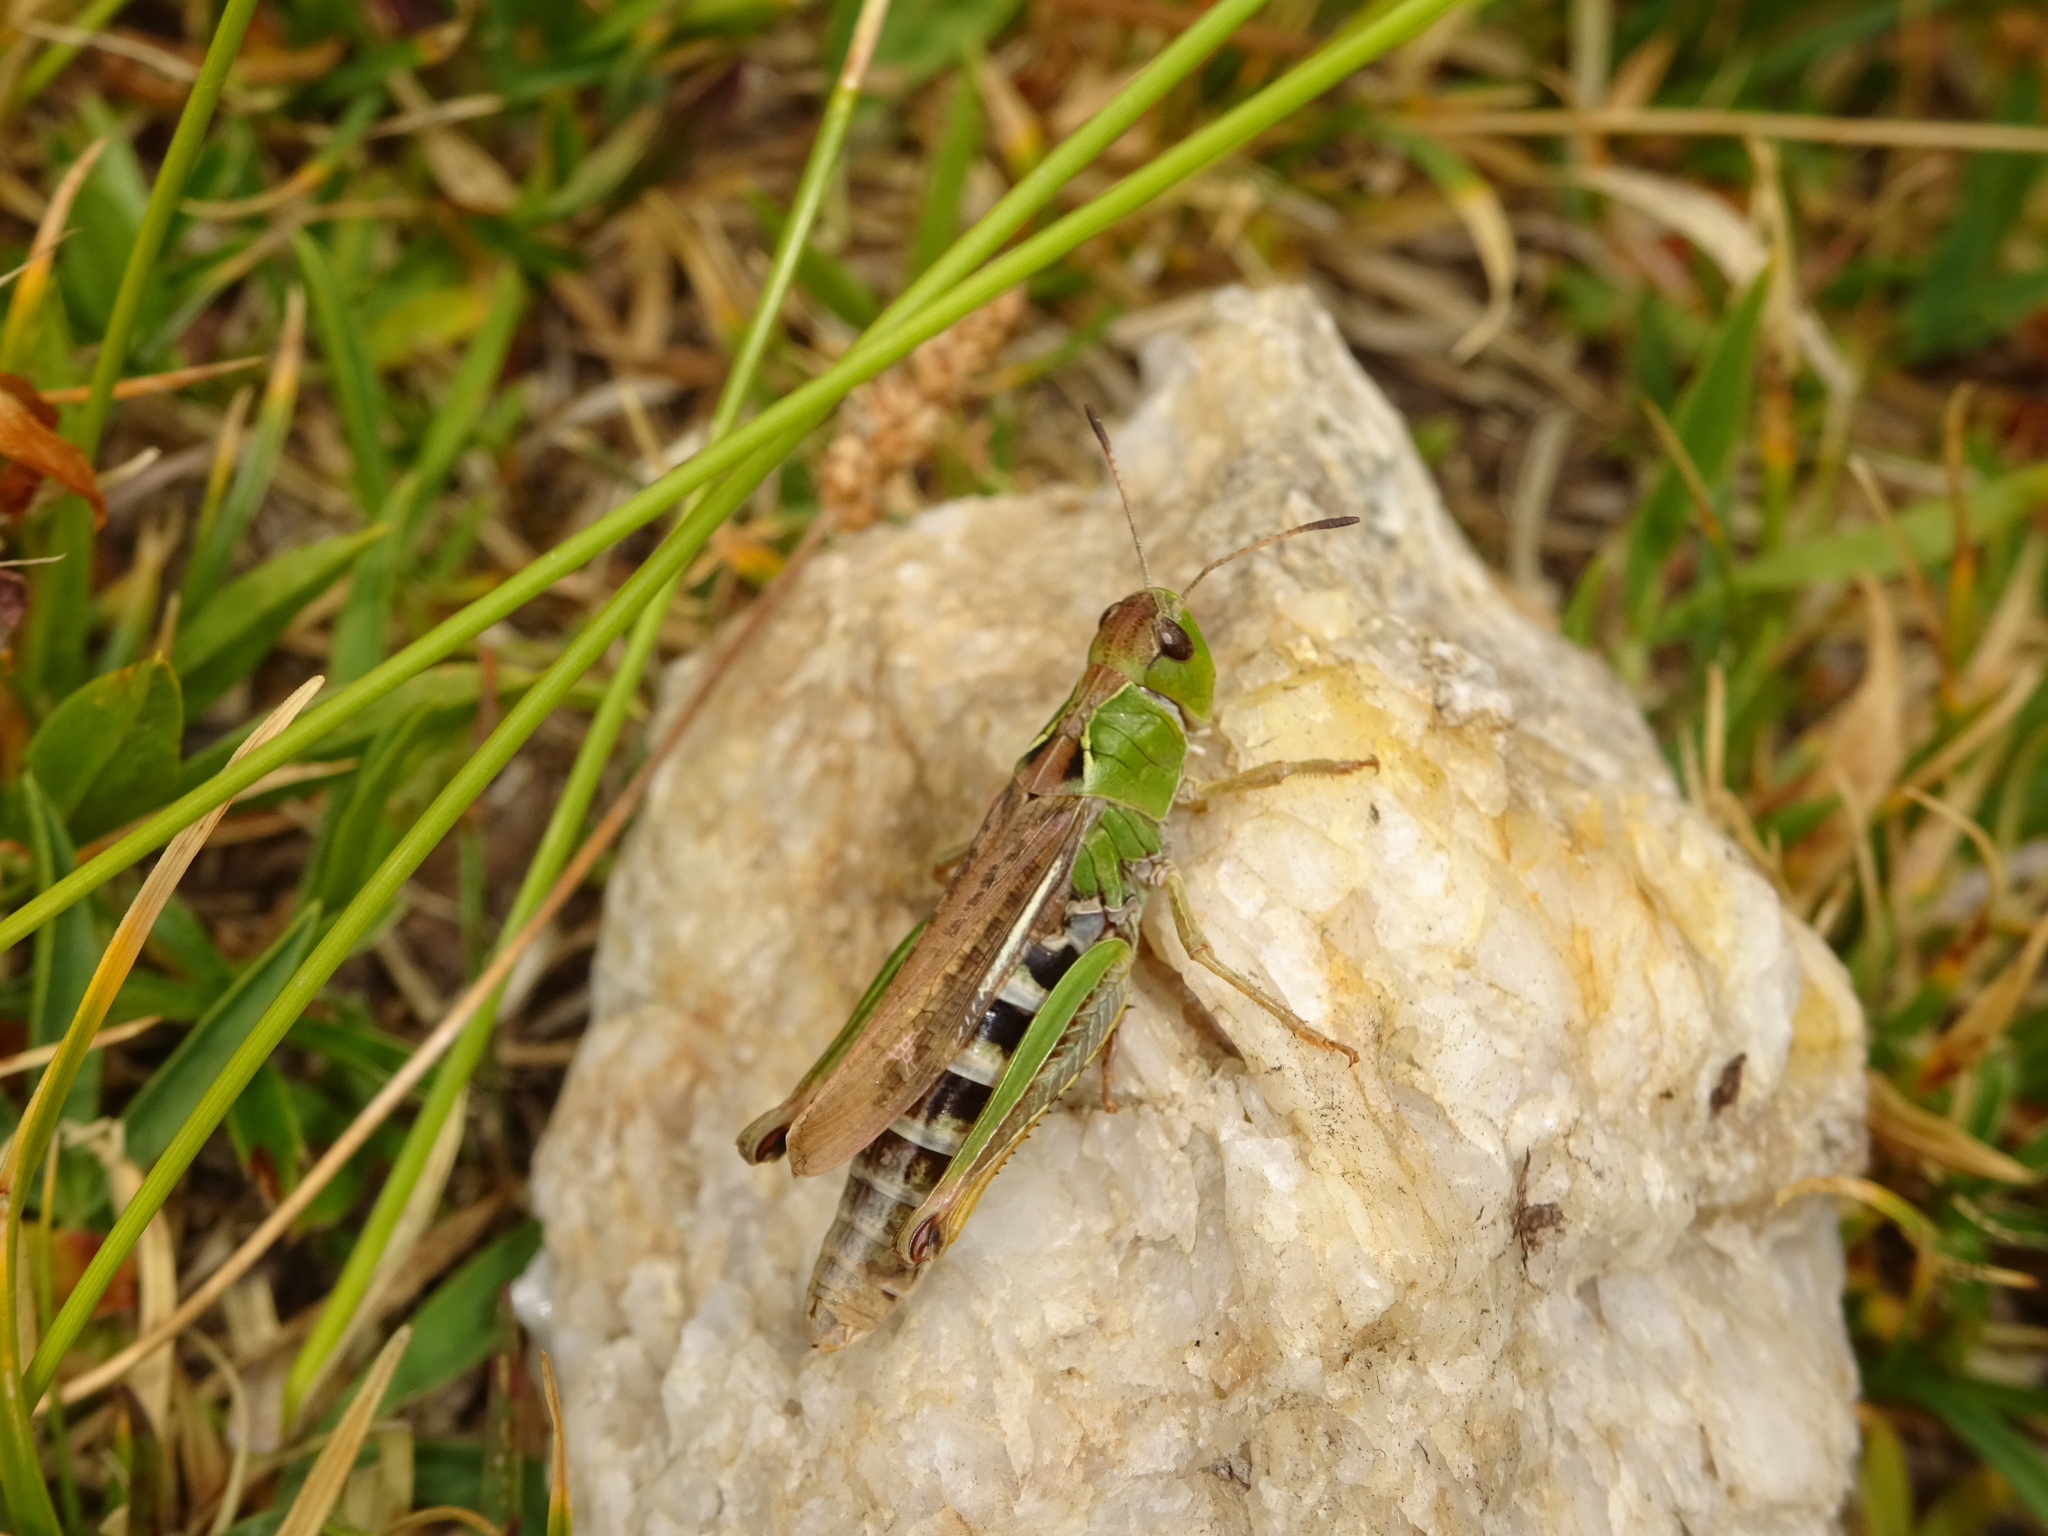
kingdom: Animalia
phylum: Arthropoda
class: Insecta
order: Orthoptera
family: Acrididae
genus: Gomphocerus
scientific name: Gomphocerus sibiricus
